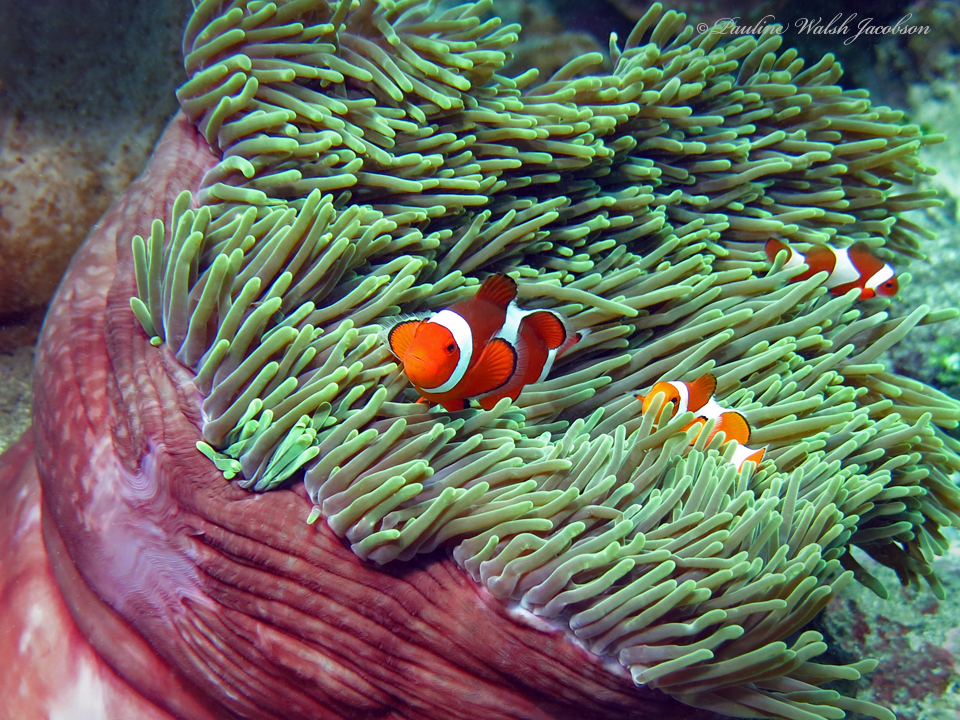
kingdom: Animalia
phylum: Chordata
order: Perciformes
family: Pomacentridae
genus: Amphiprion
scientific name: Amphiprion ocellaris
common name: Clown anemonefish
